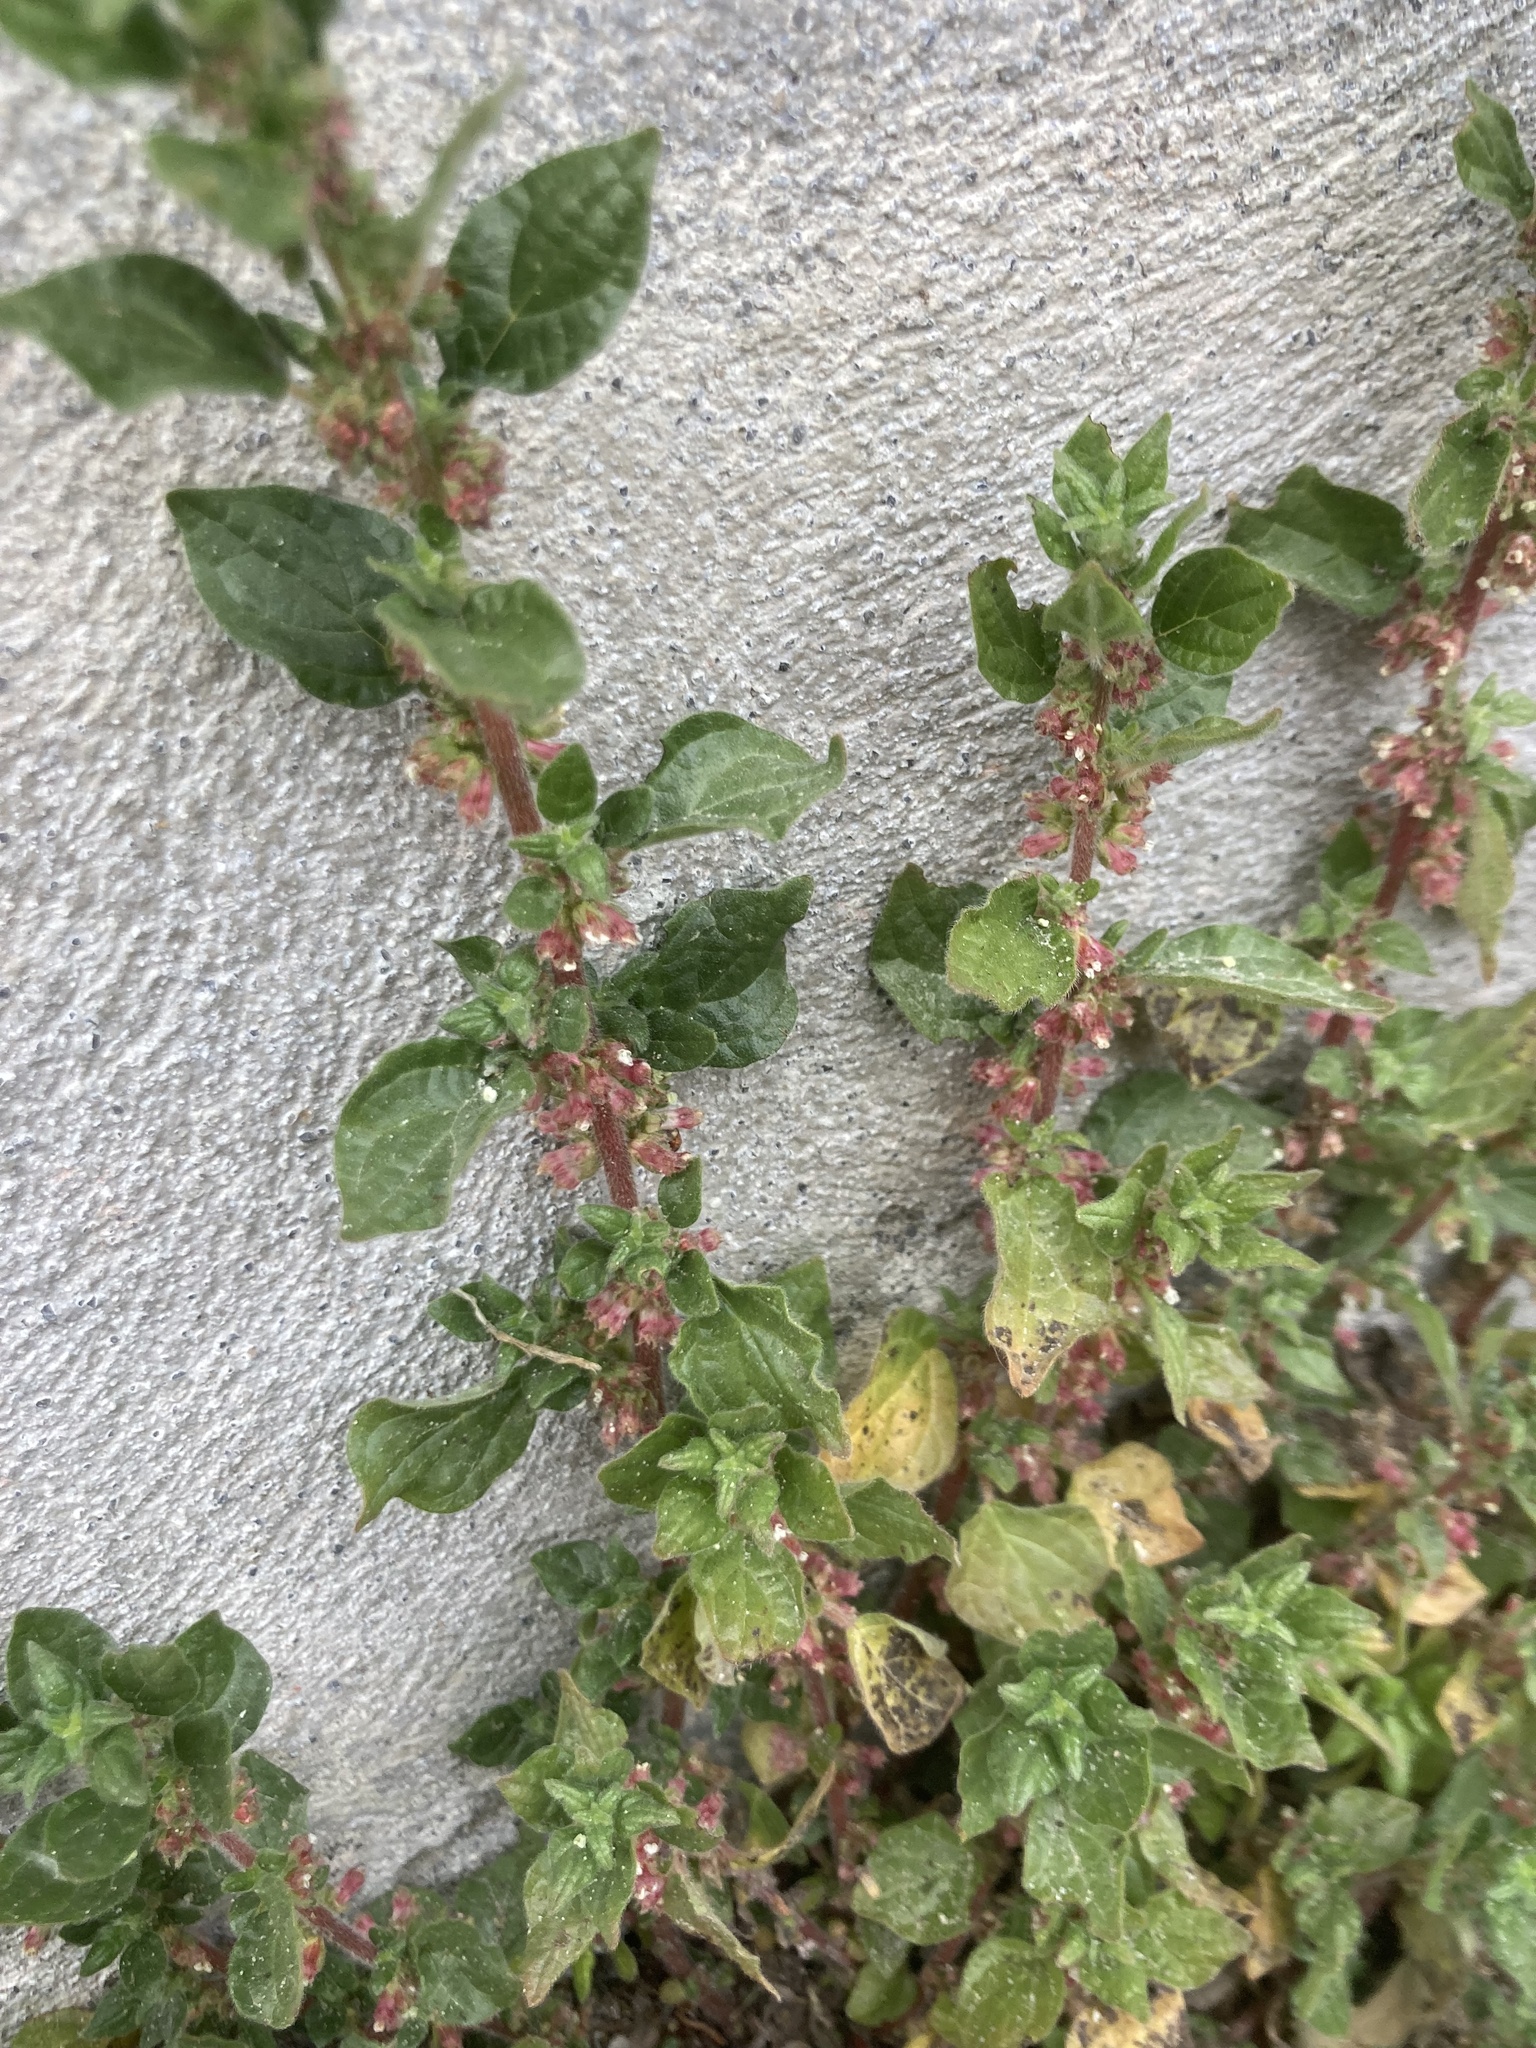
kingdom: Plantae
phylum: Tracheophyta
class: Magnoliopsida
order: Rosales
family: Urticaceae
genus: Parietaria
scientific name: Parietaria judaica
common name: Pellitory-of-the-wall
